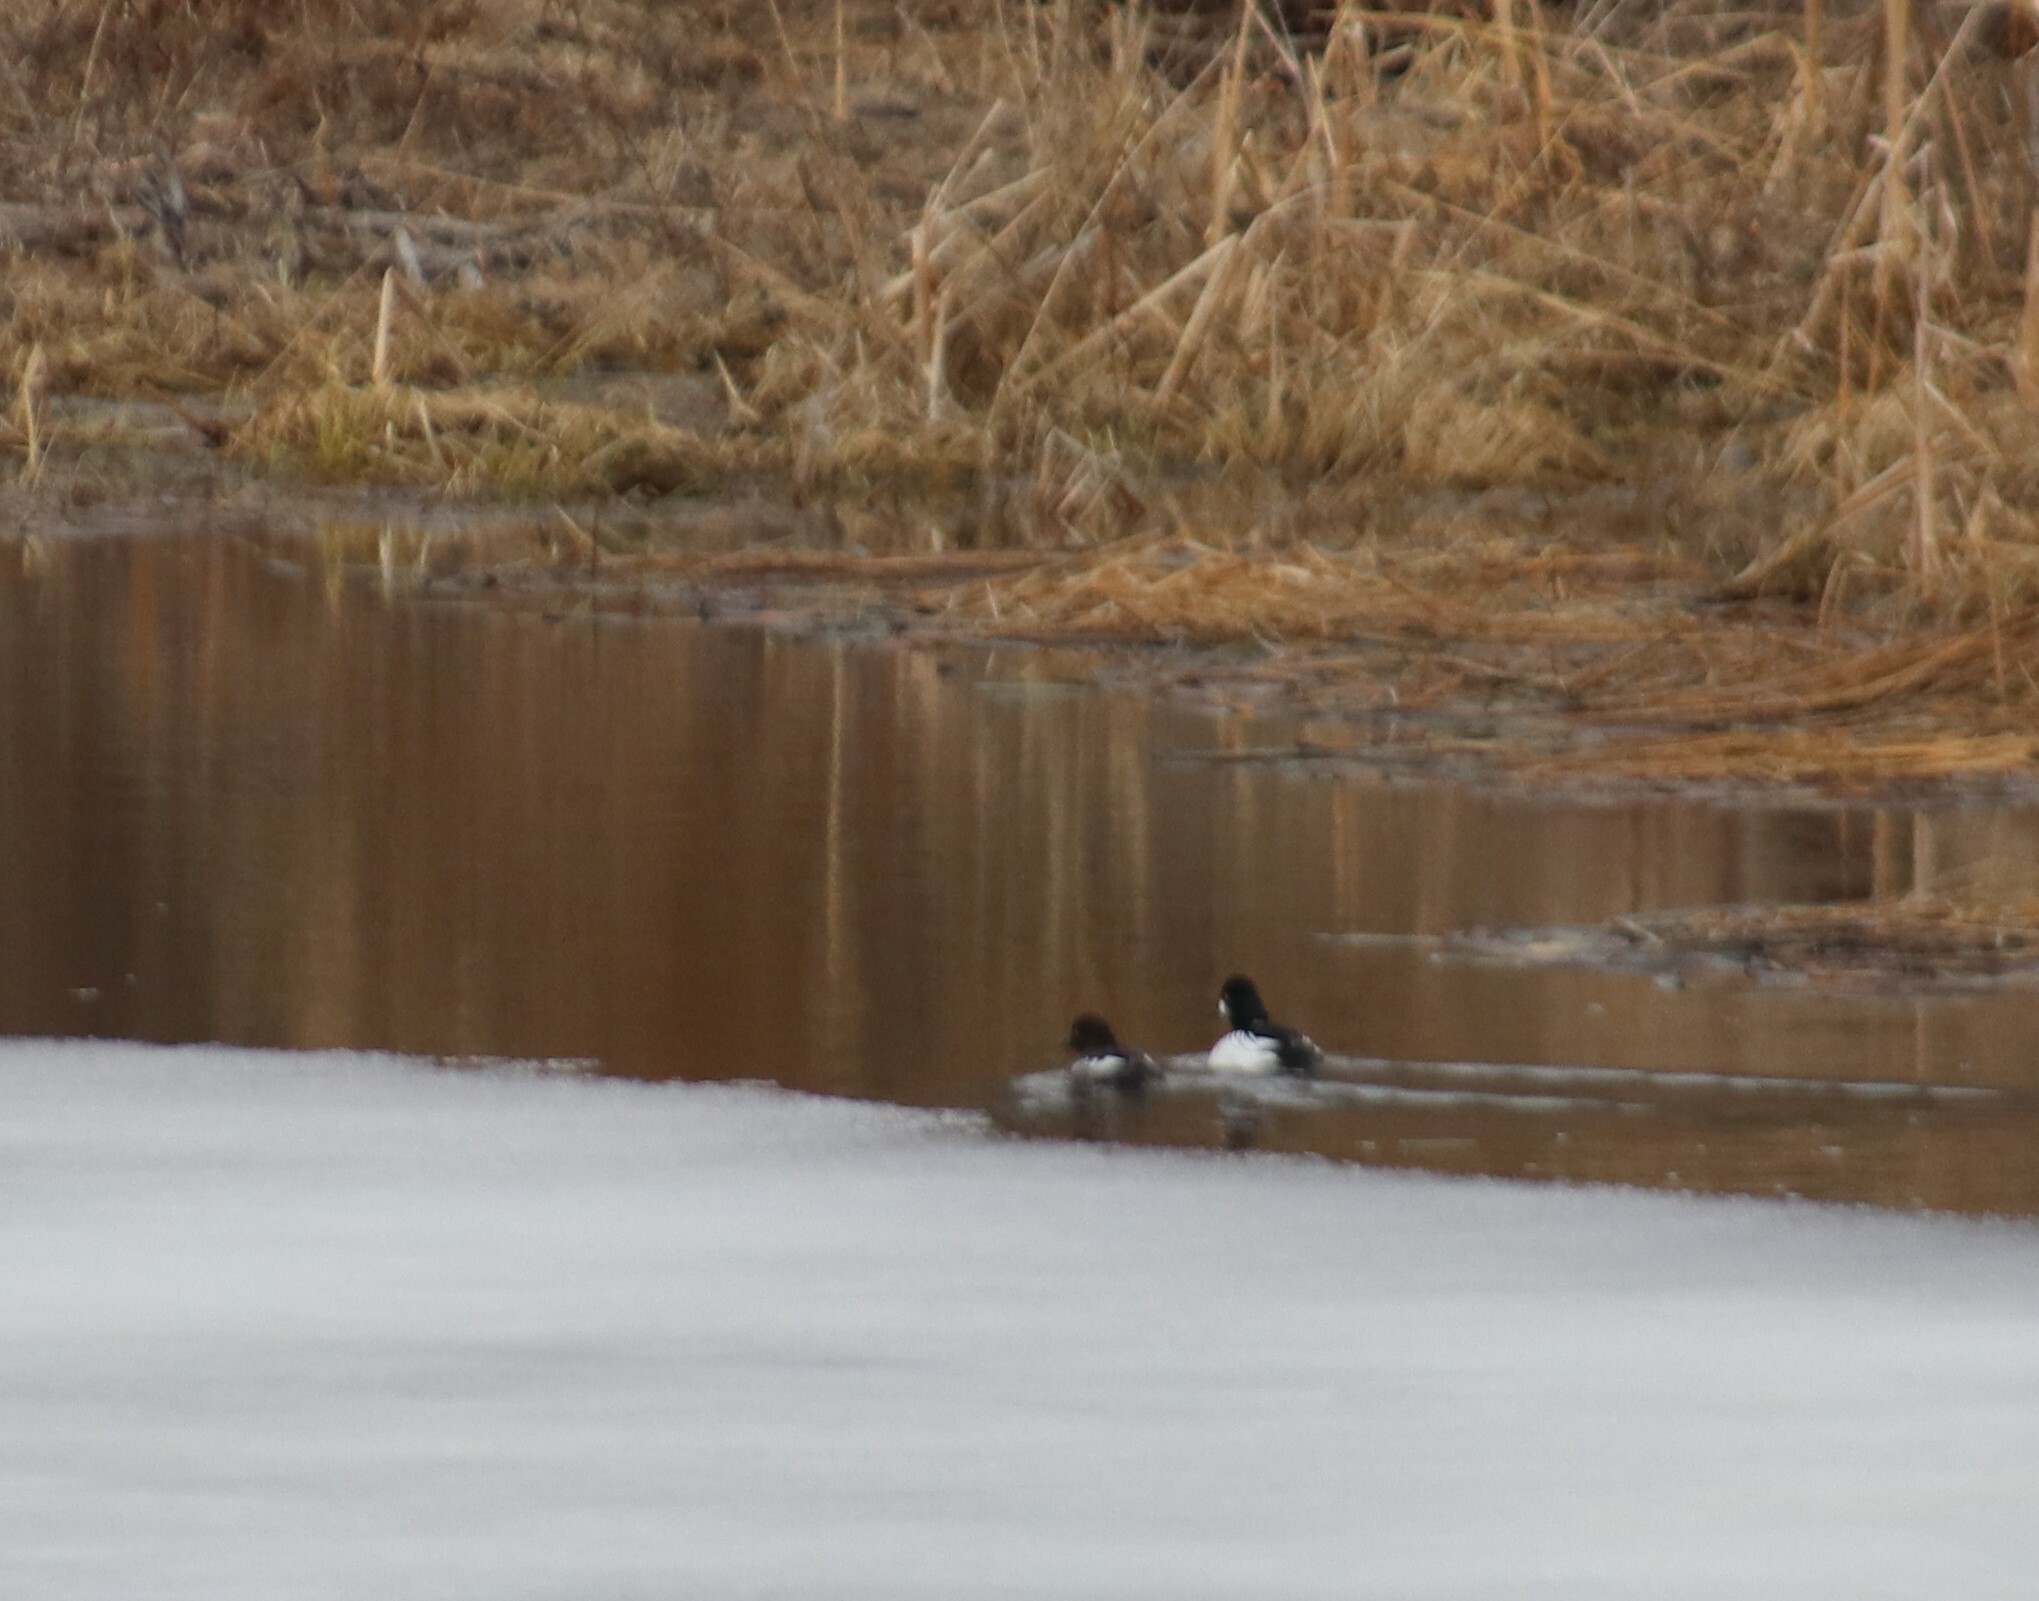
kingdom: Animalia
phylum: Chordata
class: Aves
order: Anseriformes
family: Anatidae
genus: Bucephala
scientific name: Bucephala clangula
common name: Common goldeneye
